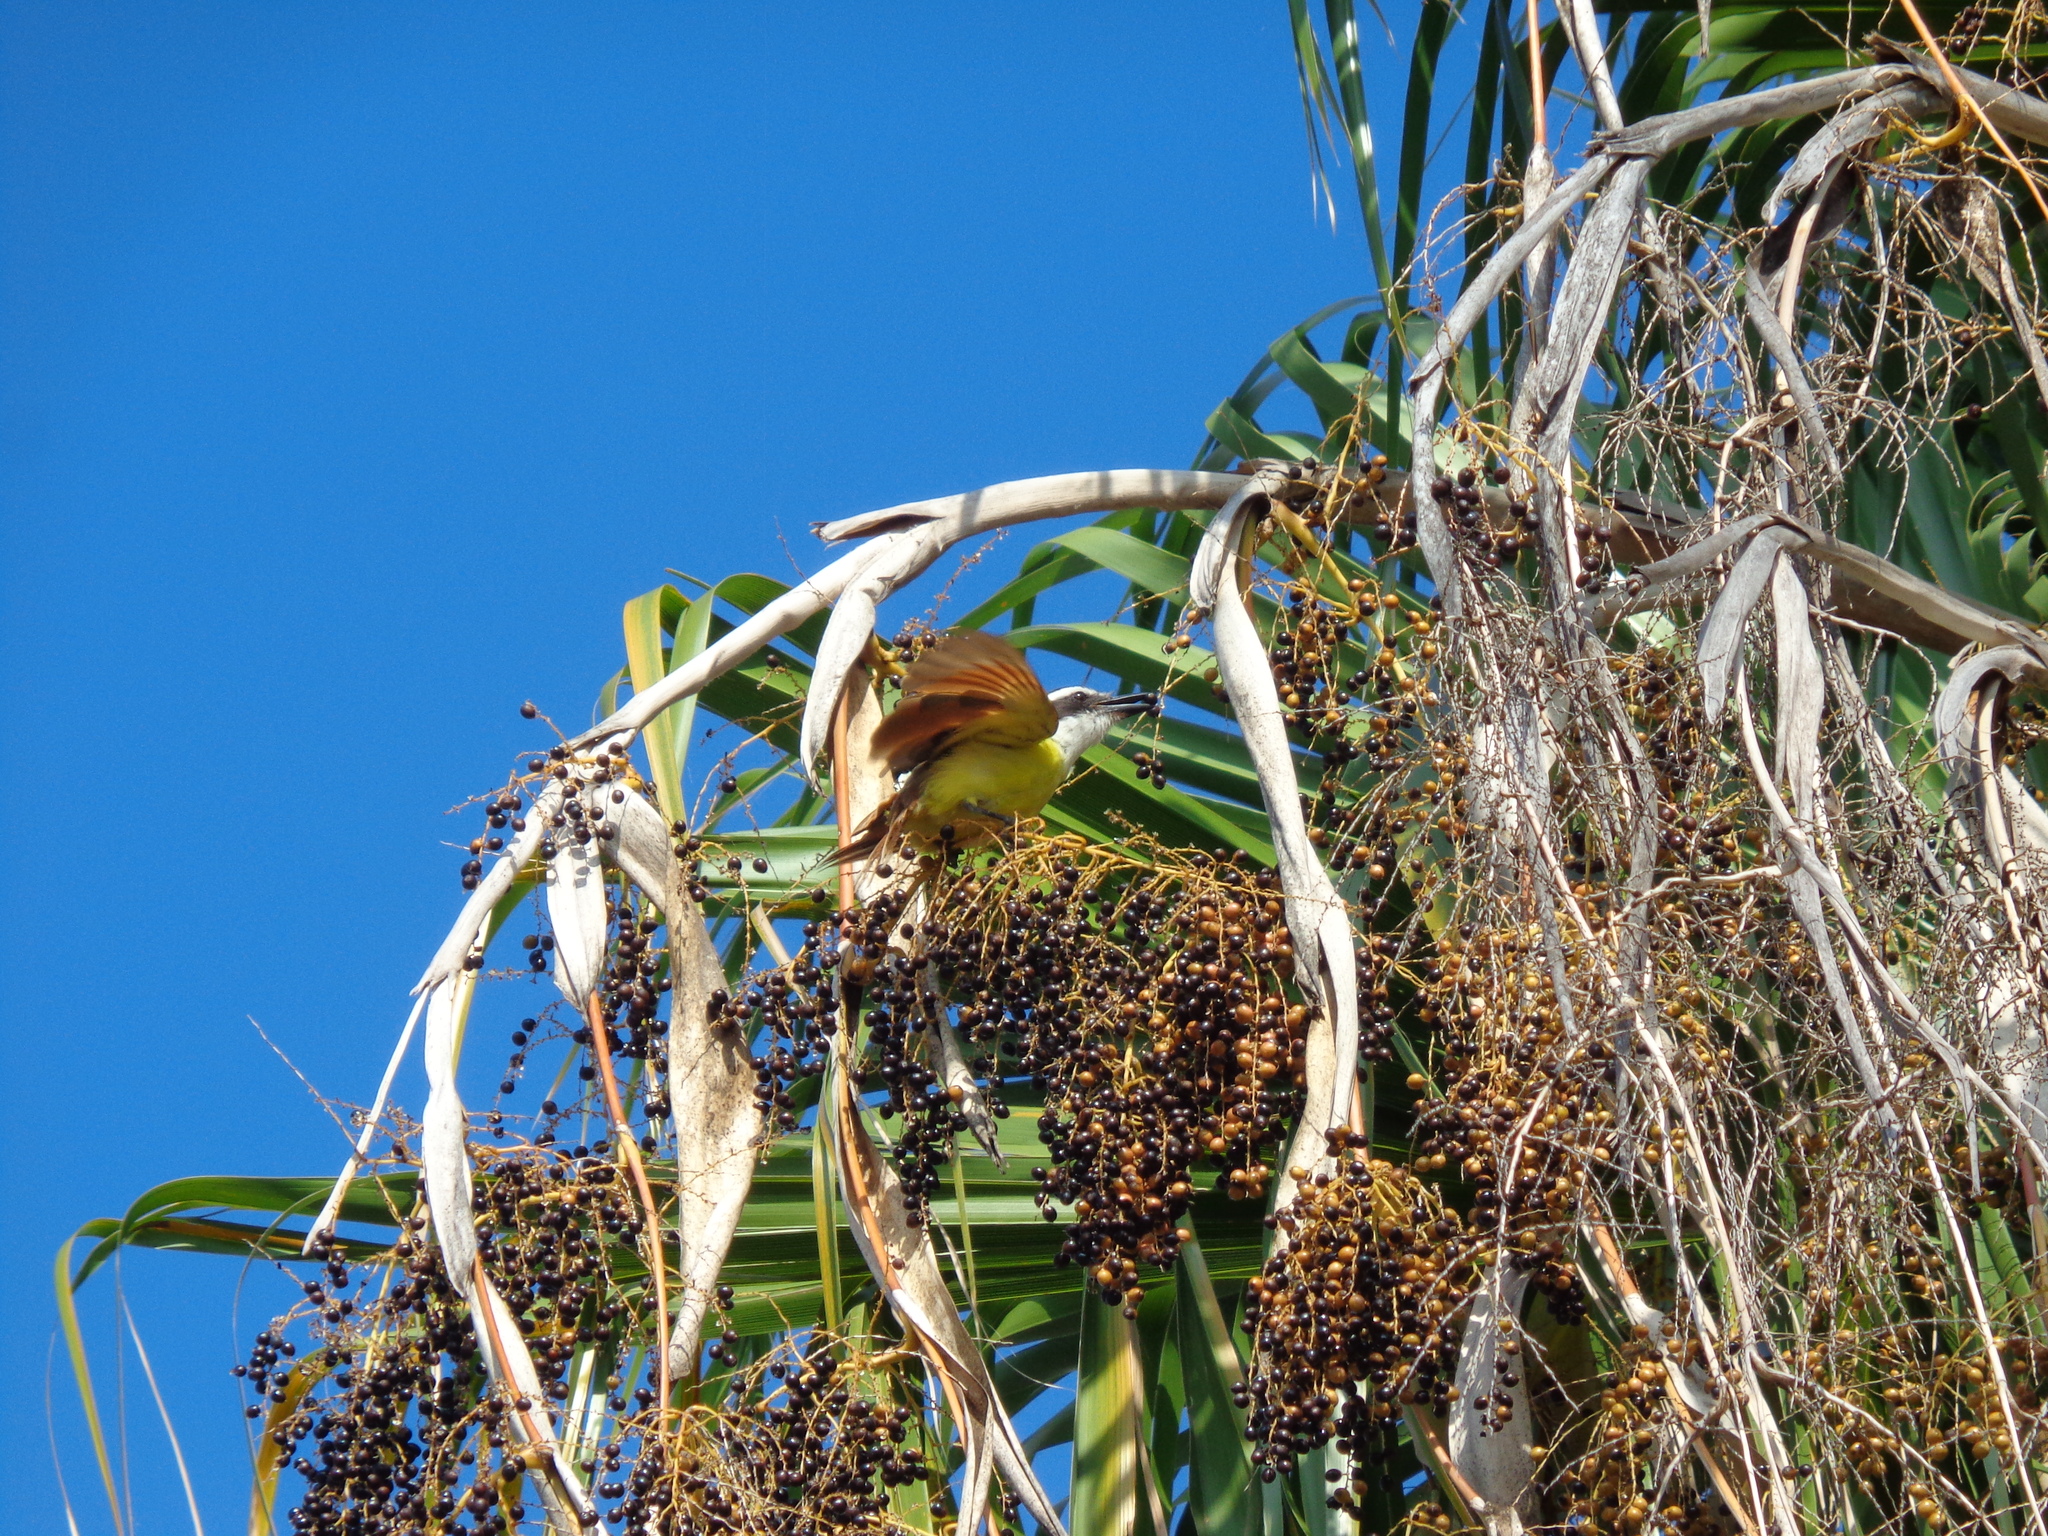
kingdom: Animalia
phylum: Chordata
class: Aves
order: Passeriformes
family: Tyrannidae
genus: Pitangus
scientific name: Pitangus sulphuratus
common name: Great kiskadee
